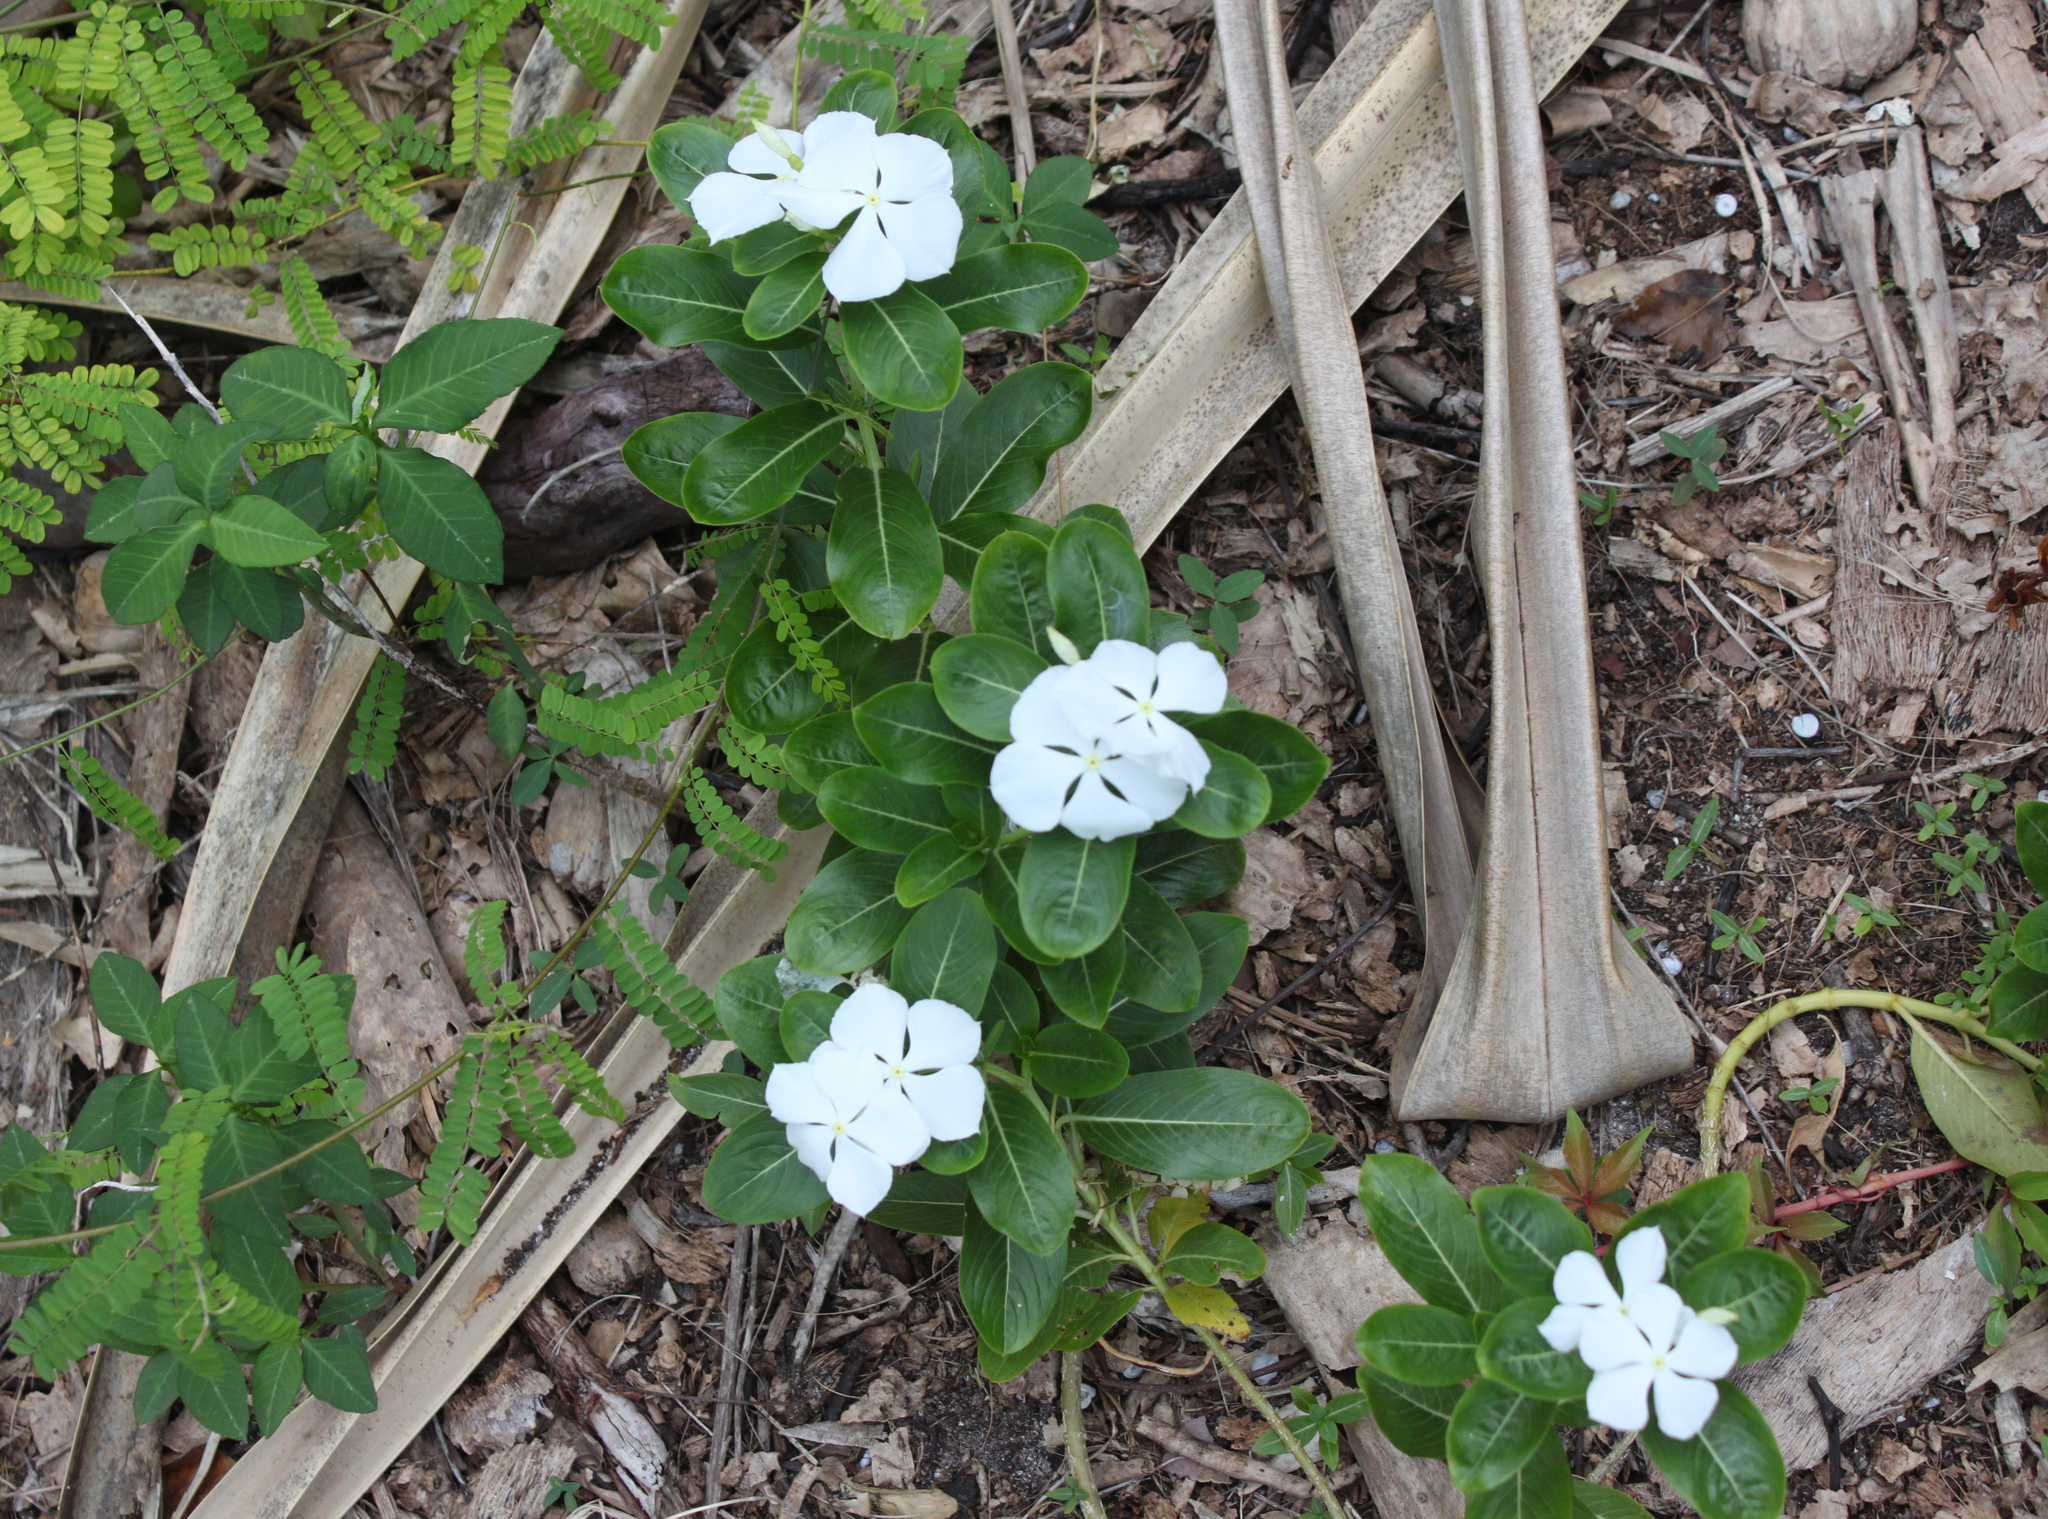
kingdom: Plantae
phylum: Tracheophyta
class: Magnoliopsida
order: Gentianales
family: Apocynaceae
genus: Catharanthus
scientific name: Catharanthus roseus
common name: Madagascar periwinkle
